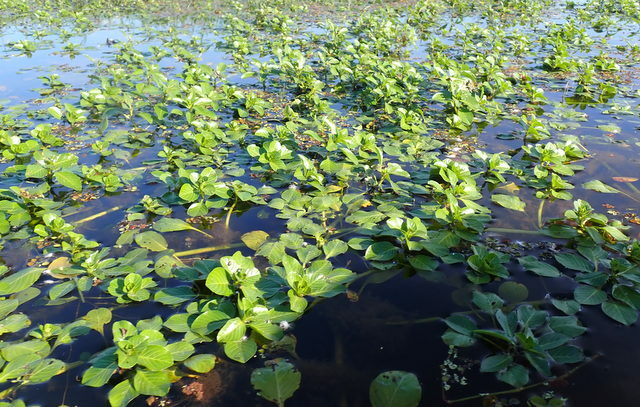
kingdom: Plantae
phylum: Tracheophyta
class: Magnoliopsida
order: Myrtales
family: Onagraceae
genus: Ludwigia
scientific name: Ludwigia peploides
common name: Floating primrose-willow
